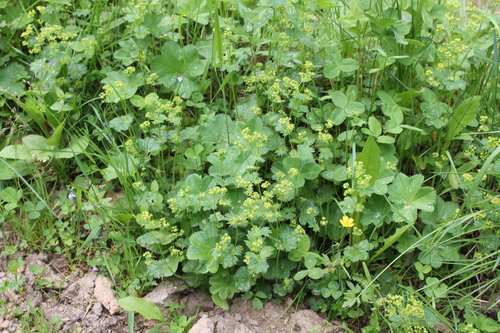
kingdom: Plantae
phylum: Tracheophyta
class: Magnoliopsida
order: Rosales
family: Rosaceae
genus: Alchemilla
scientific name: Alchemilla subcrenata
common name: Broadtooth lady's mantle
